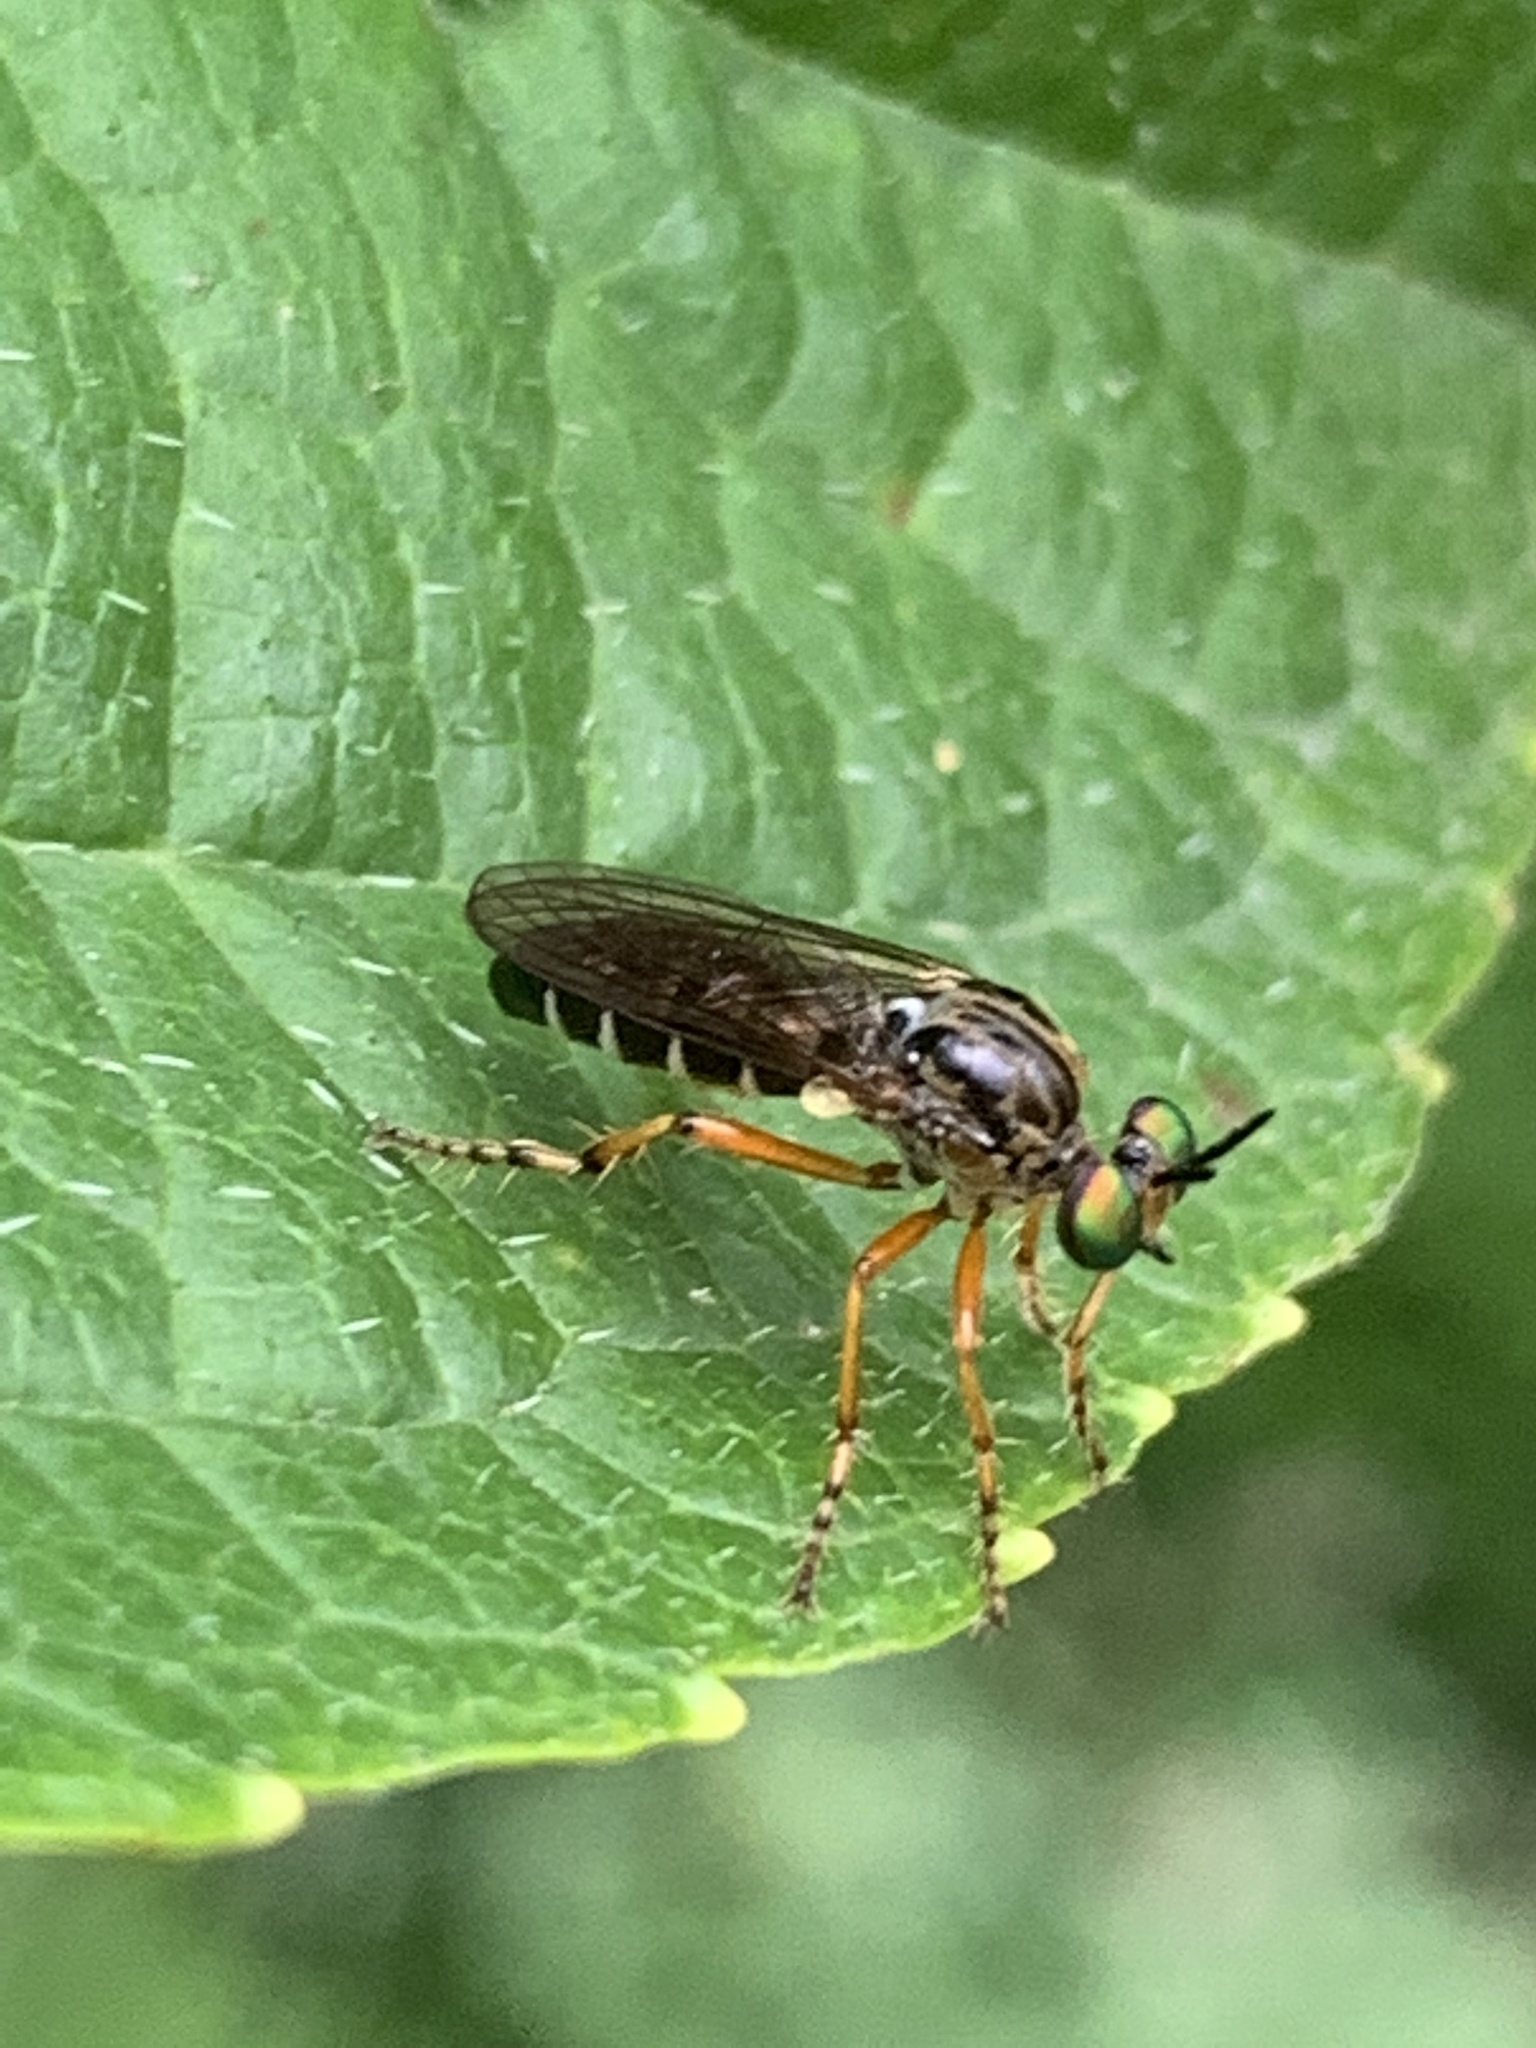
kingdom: Animalia
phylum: Arthropoda
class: Insecta
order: Diptera
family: Asilidae
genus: Taracticus
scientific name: Taracticus octopunctatus
